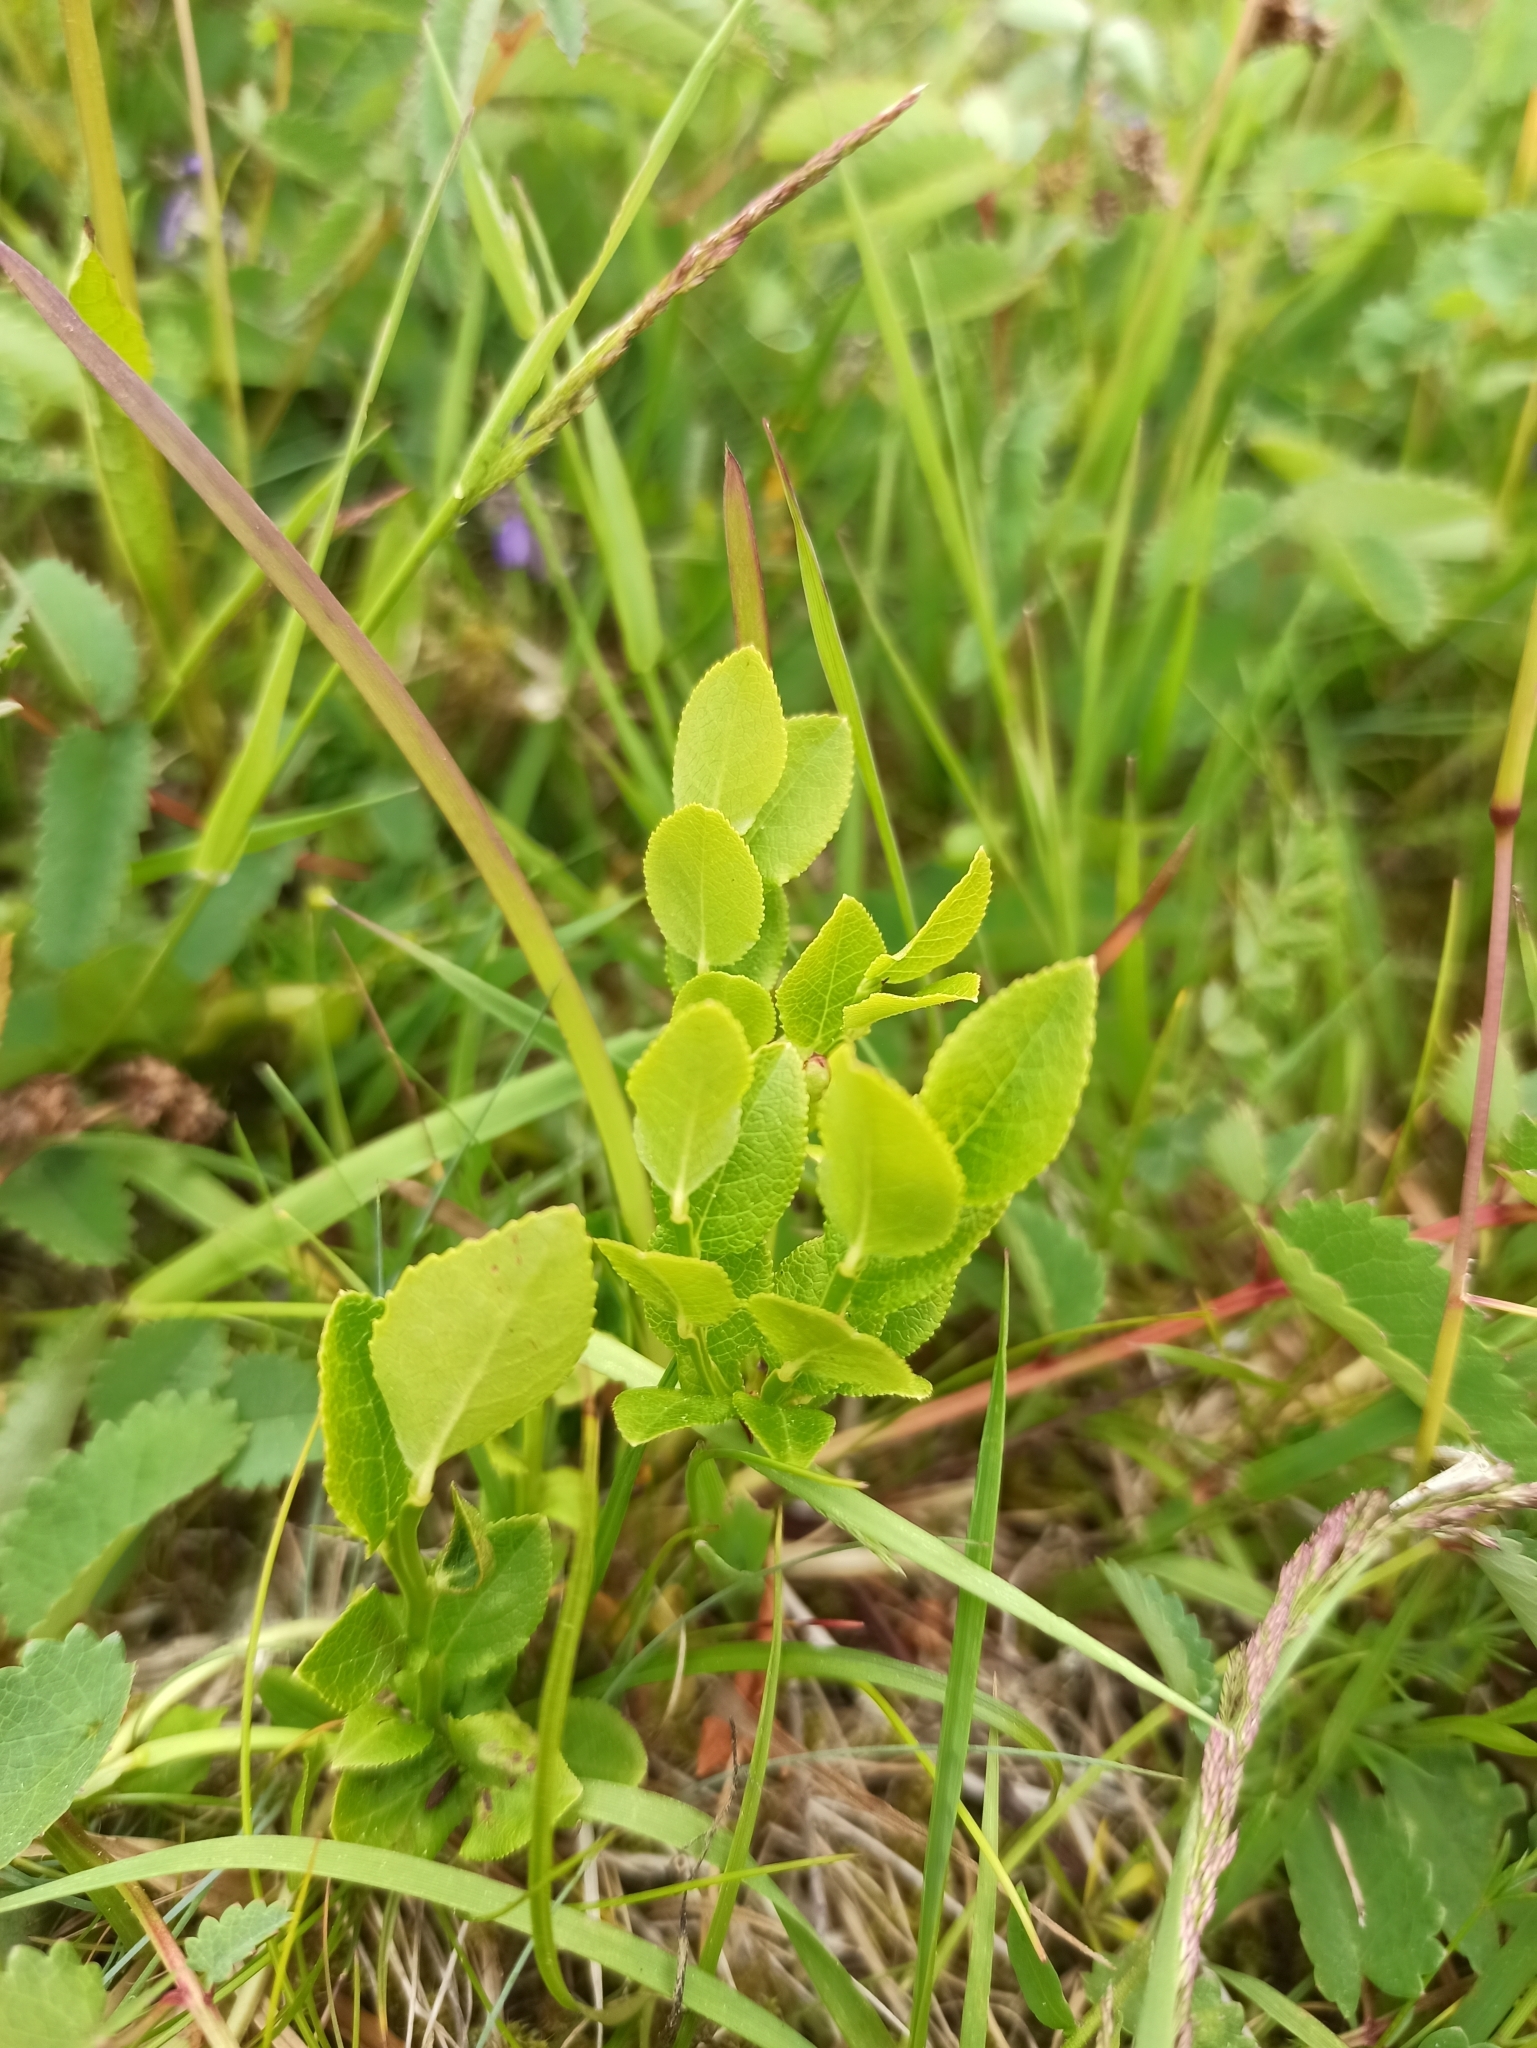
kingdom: Plantae
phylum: Tracheophyta
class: Magnoliopsida
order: Ericales
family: Ericaceae
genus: Vaccinium
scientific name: Vaccinium myrtillus
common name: Bilberry
